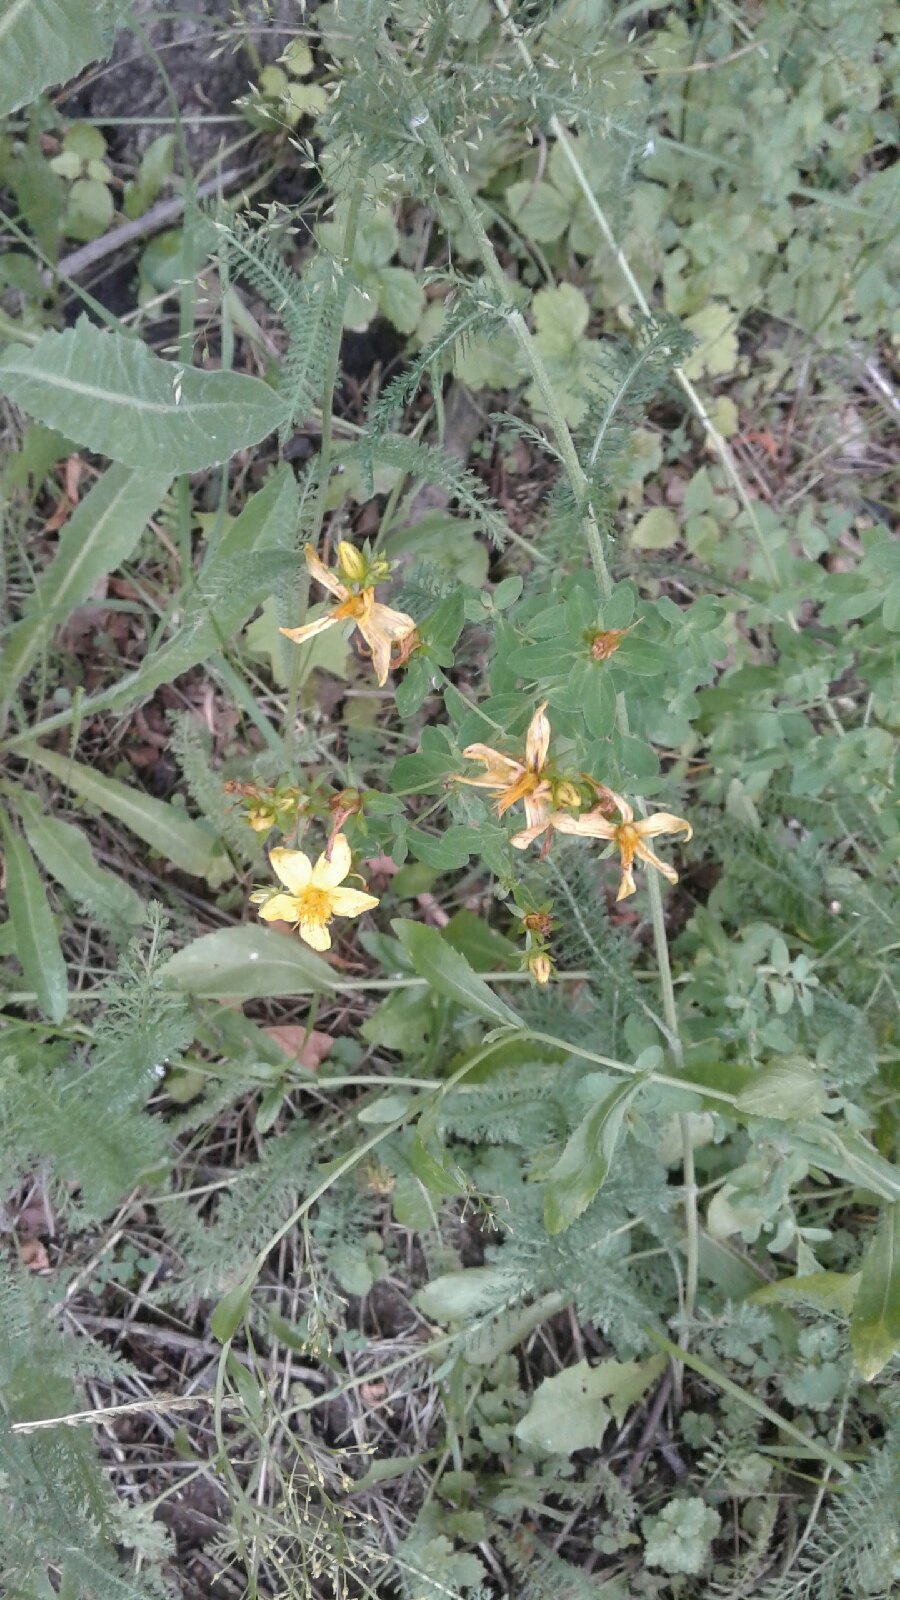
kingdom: Plantae
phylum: Tracheophyta
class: Magnoliopsida
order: Malpighiales
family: Hypericaceae
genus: Hypericum
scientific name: Hypericum perforatum
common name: Common st. johnswort
